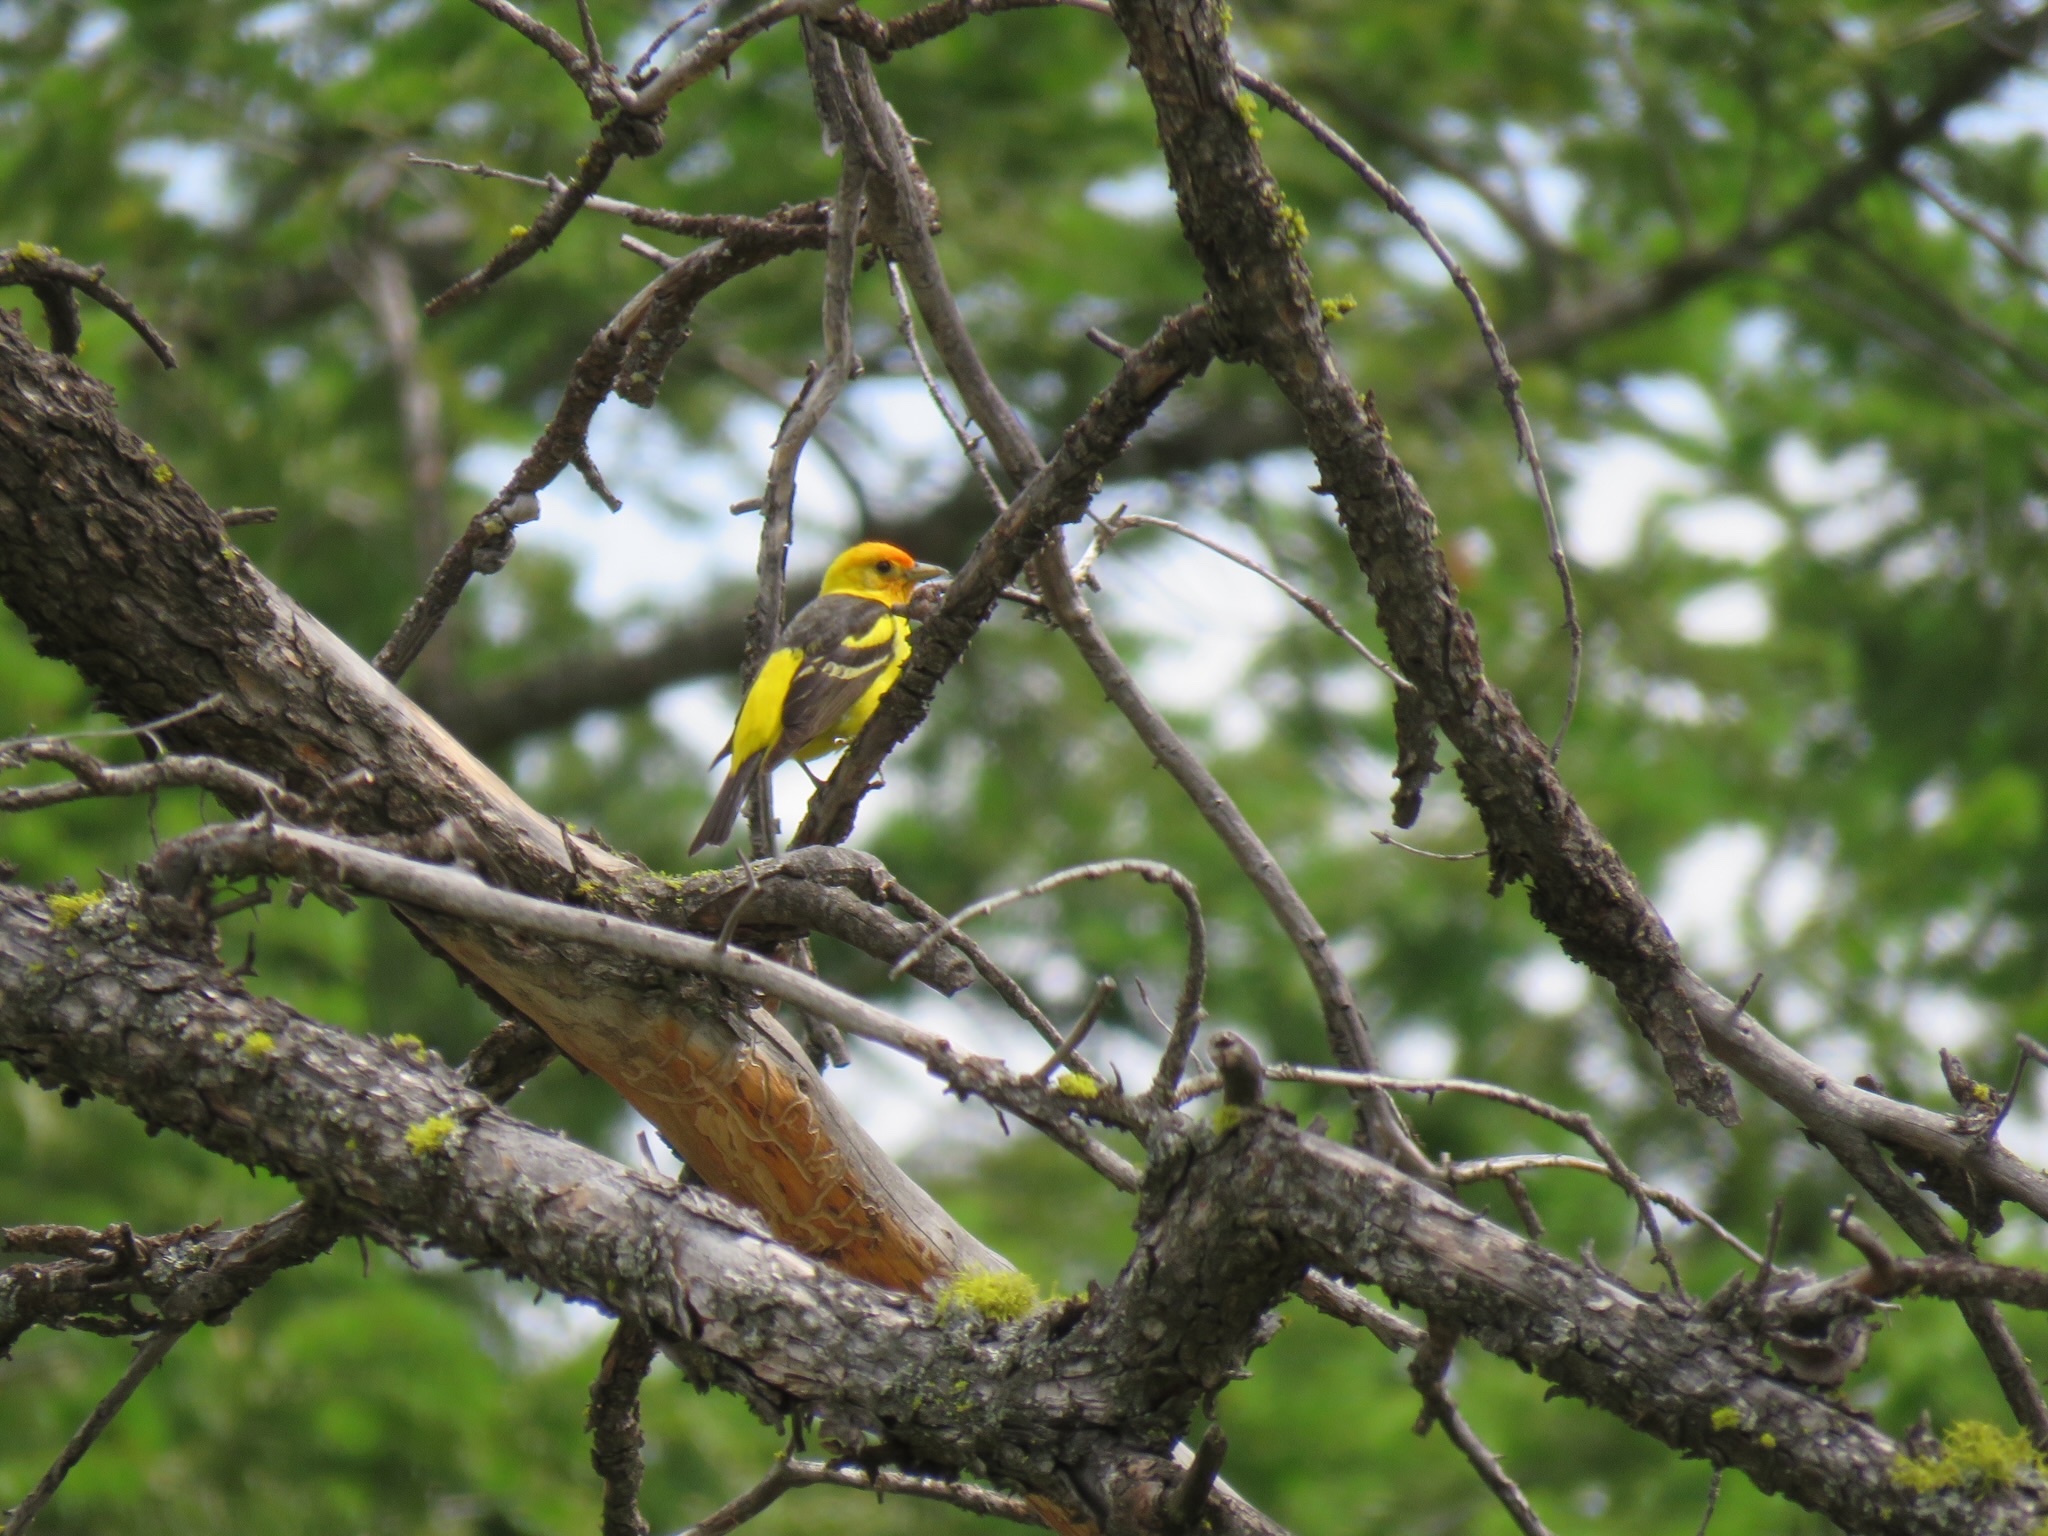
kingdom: Animalia
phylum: Chordata
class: Aves
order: Passeriformes
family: Cardinalidae
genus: Piranga
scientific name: Piranga ludoviciana
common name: Western tanager
